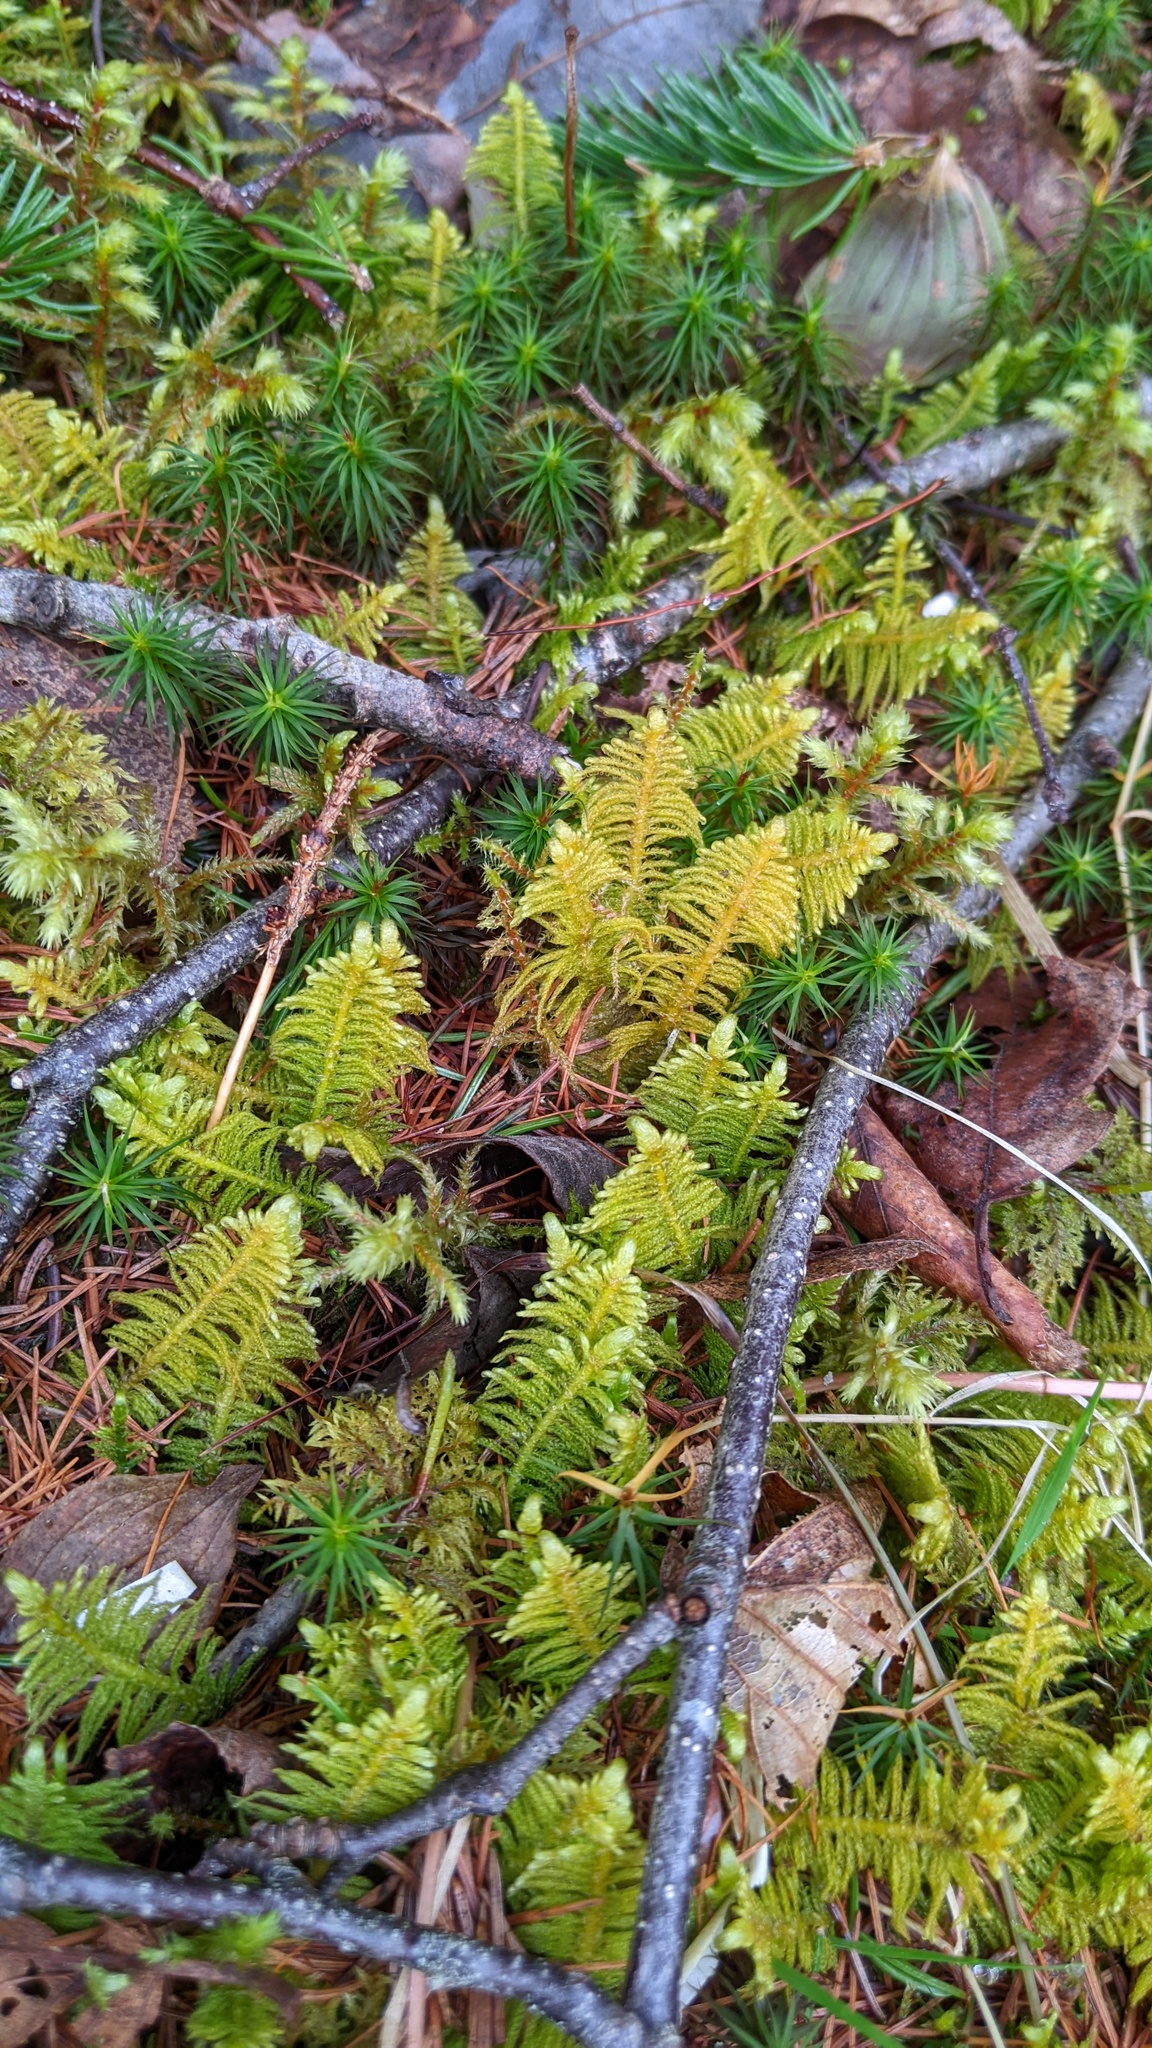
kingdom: Plantae
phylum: Bryophyta
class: Bryopsida
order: Hypnales
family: Pylaisiaceae
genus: Ptilium
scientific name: Ptilium crista-castrensis
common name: Knight's plume moss
